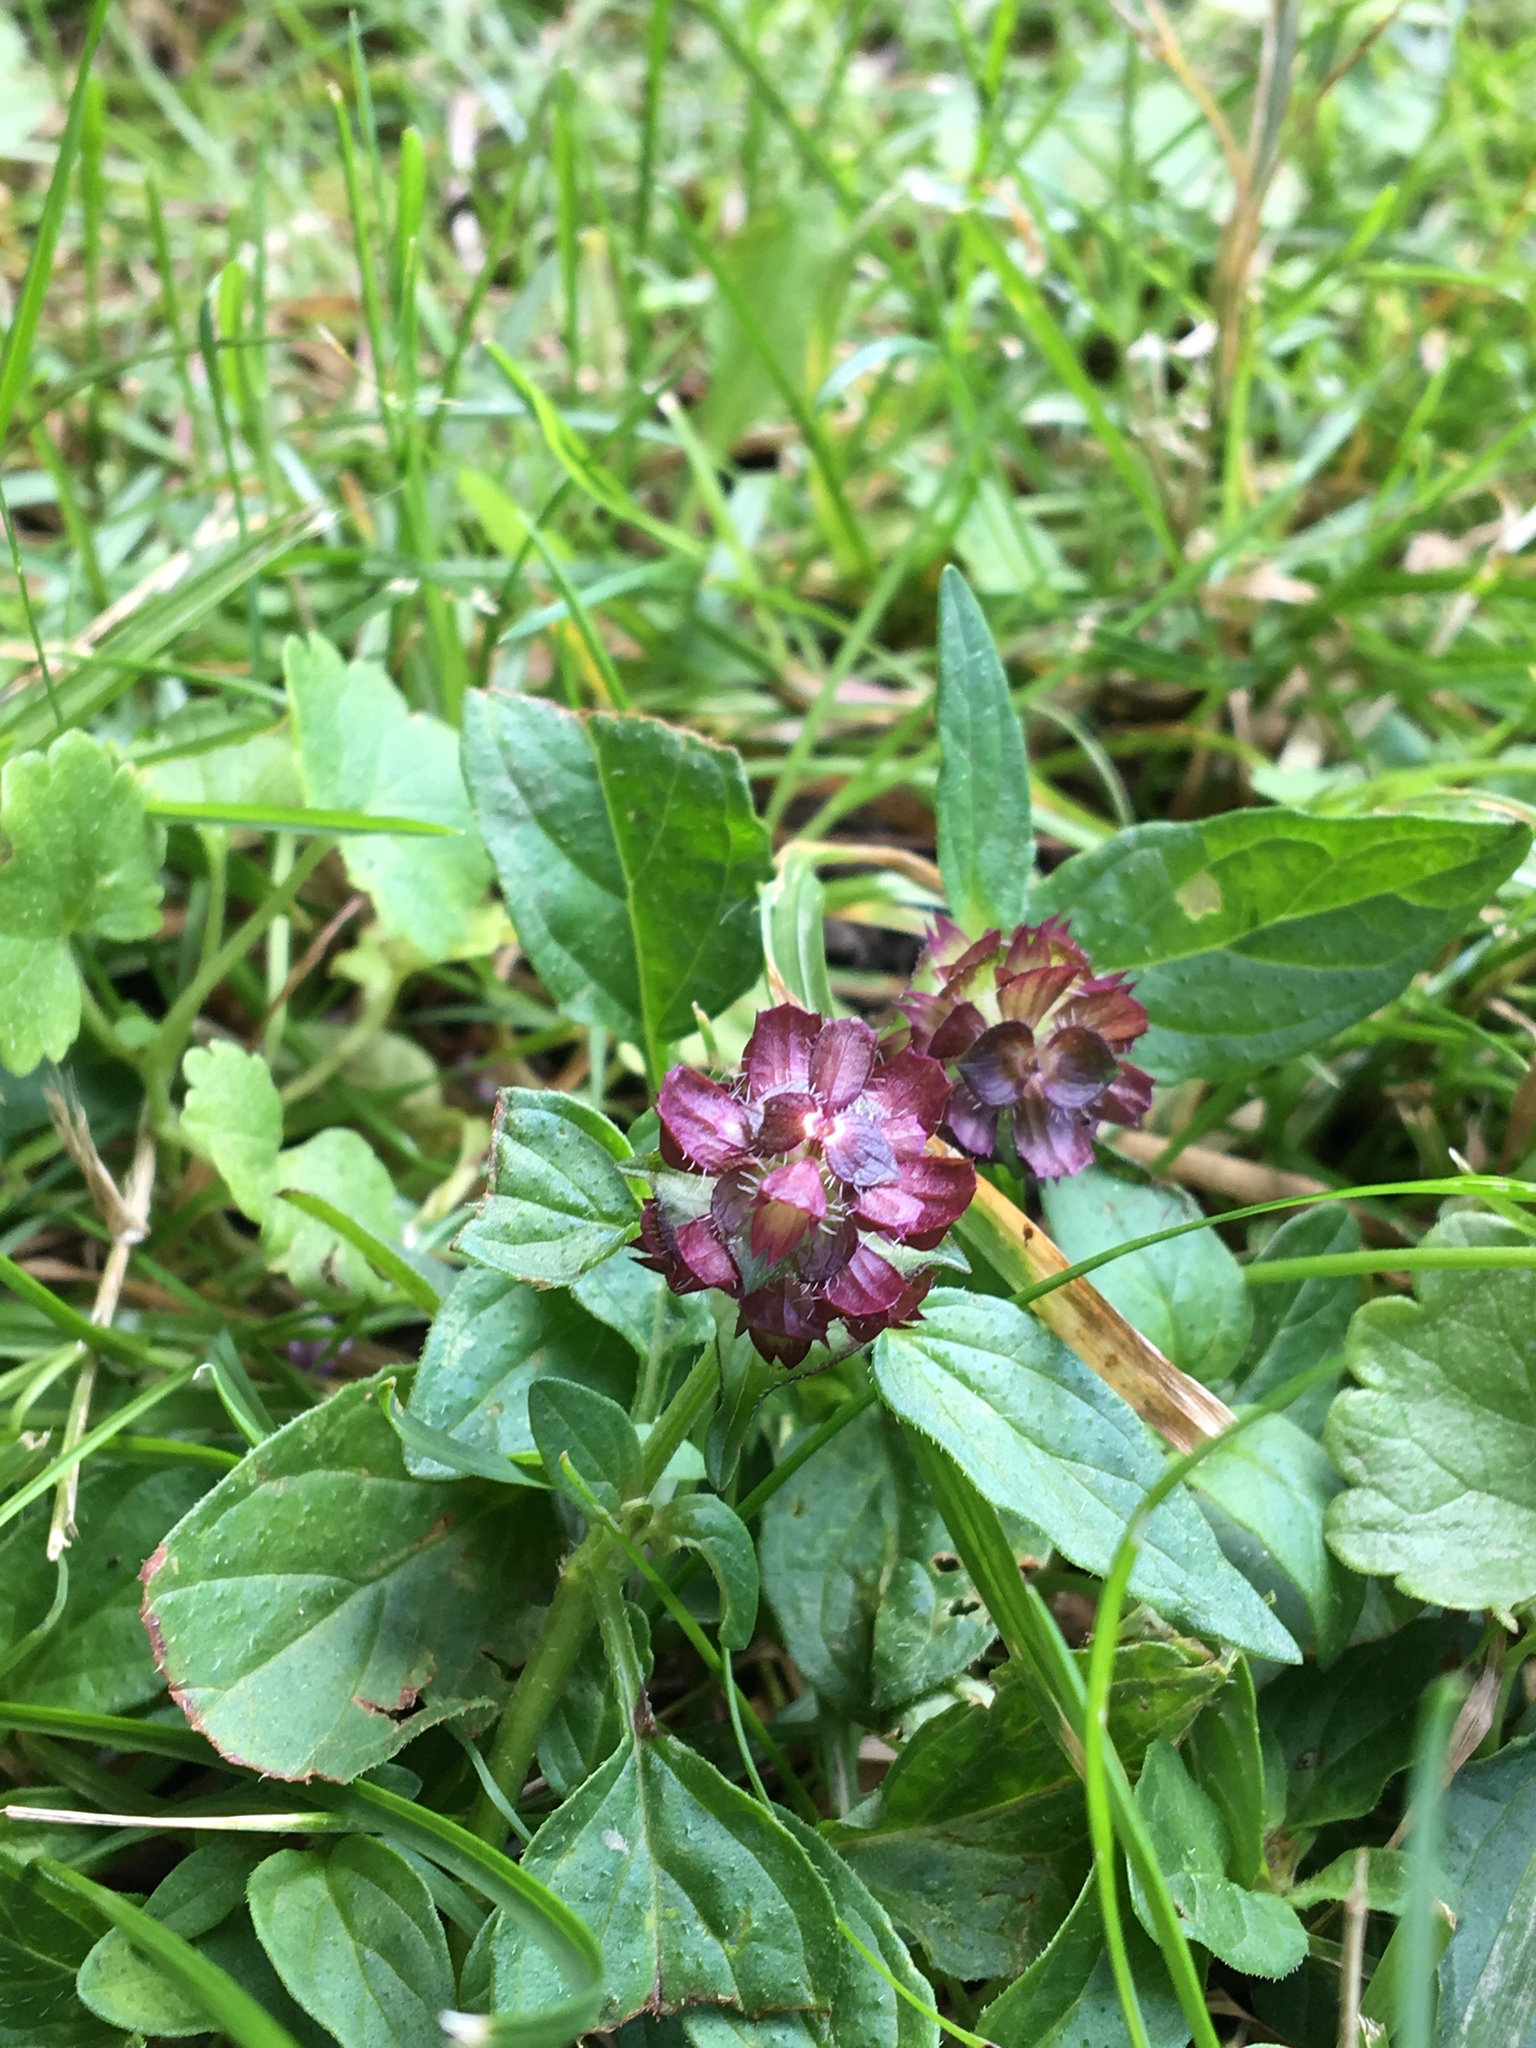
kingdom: Plantae
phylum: Tracheophyta
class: Magnoliopsida
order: Lamiales
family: Lamiaceae
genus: Prunella
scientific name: Prunella vulgaris
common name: Heal-all
